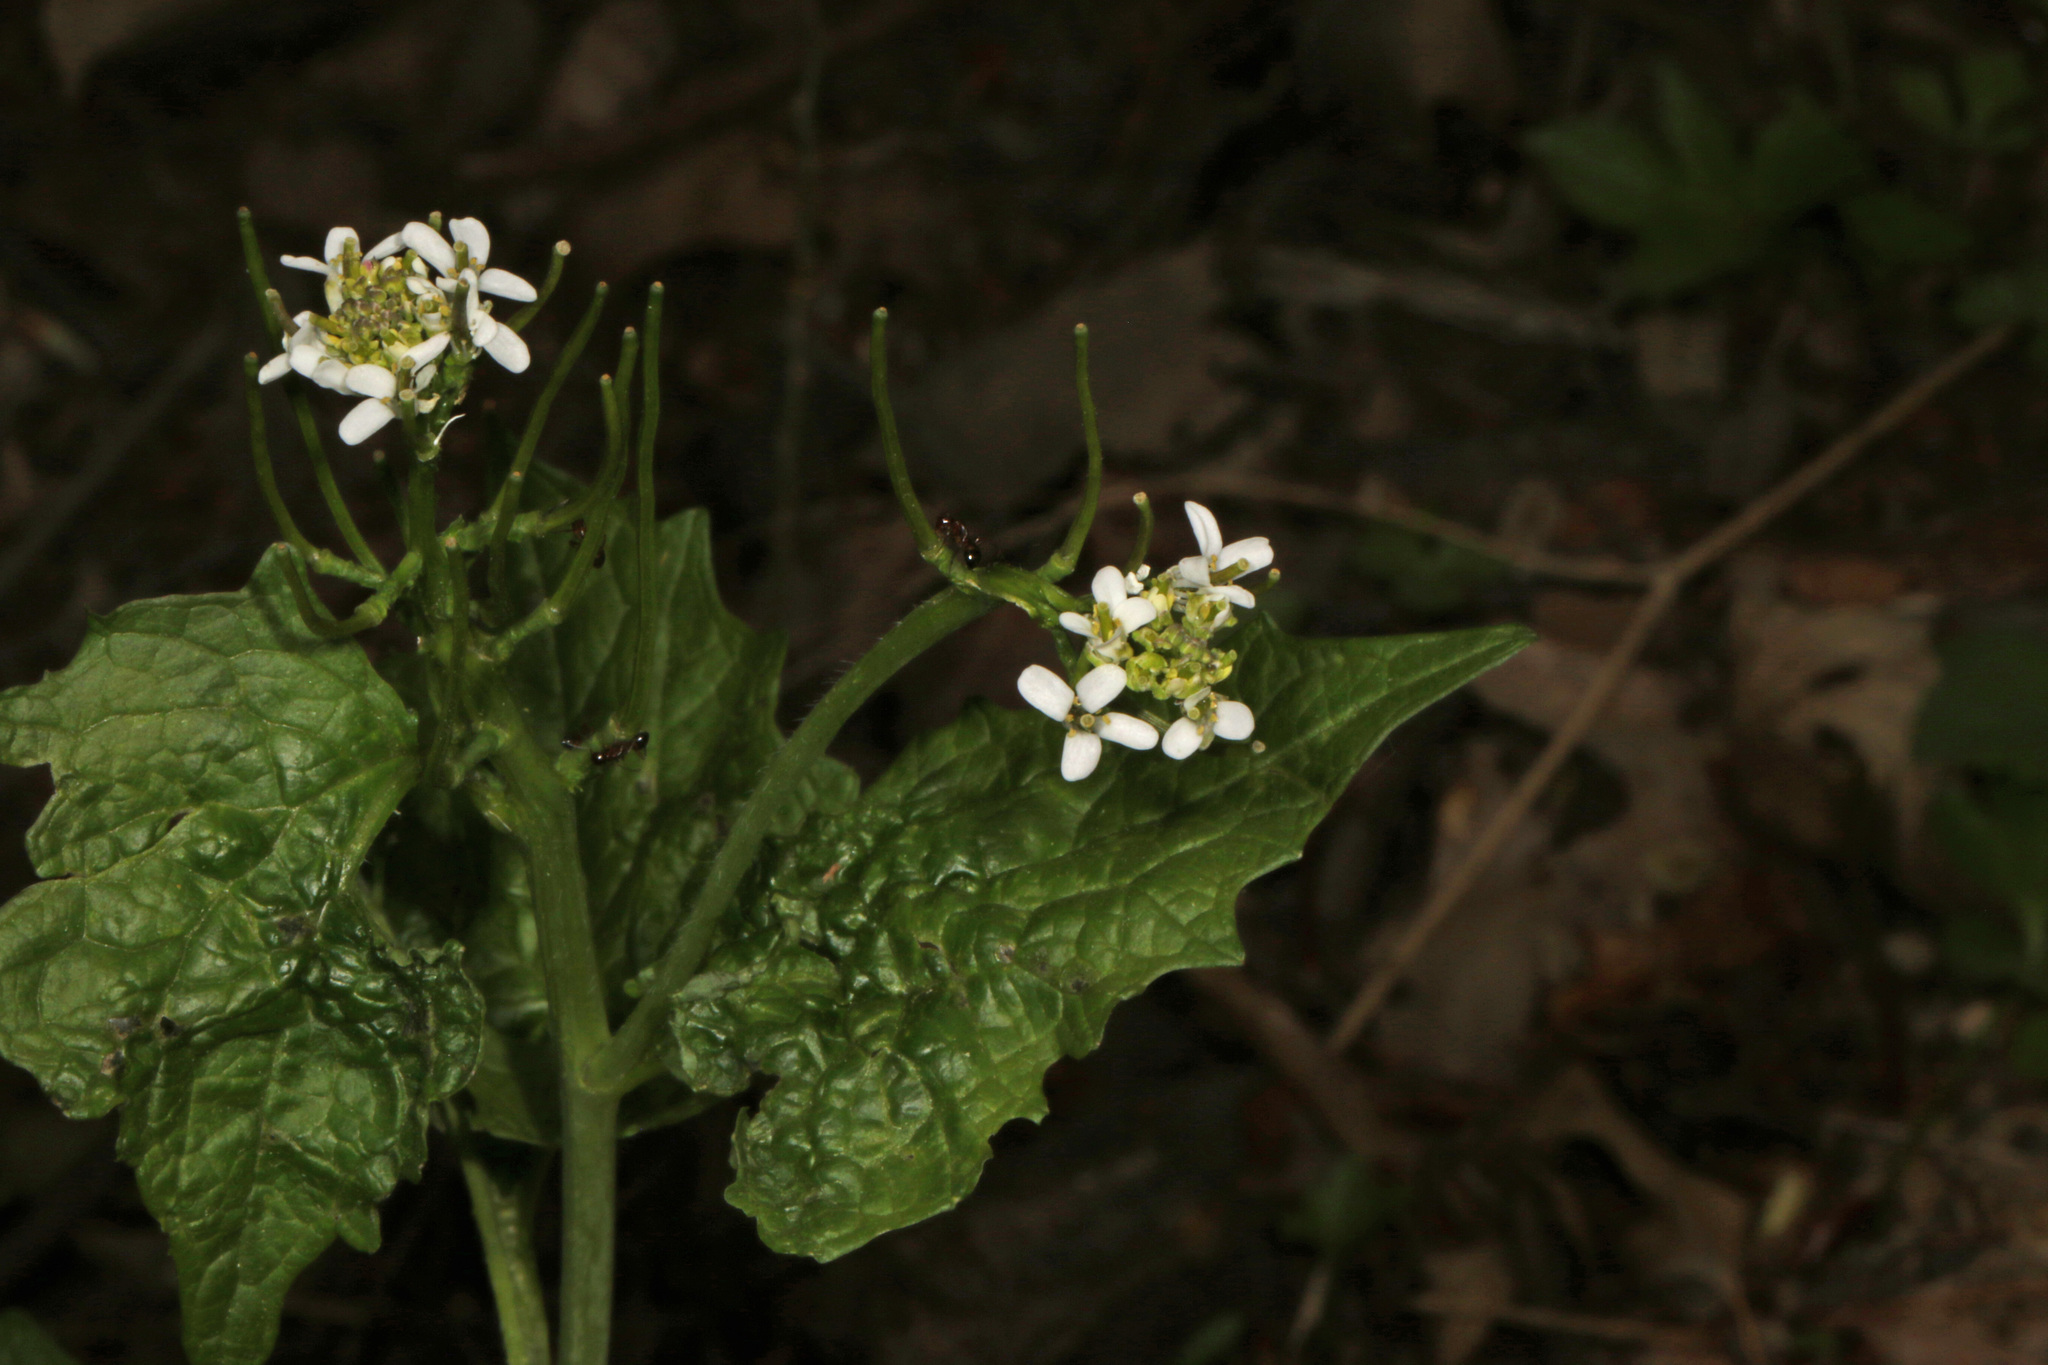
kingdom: Plantae
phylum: Tracheophyta
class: Magnoliopsida
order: Brassicales
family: Brassicaceae
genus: Alliaria
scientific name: Alliaria petiolata
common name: Garlic mustard
